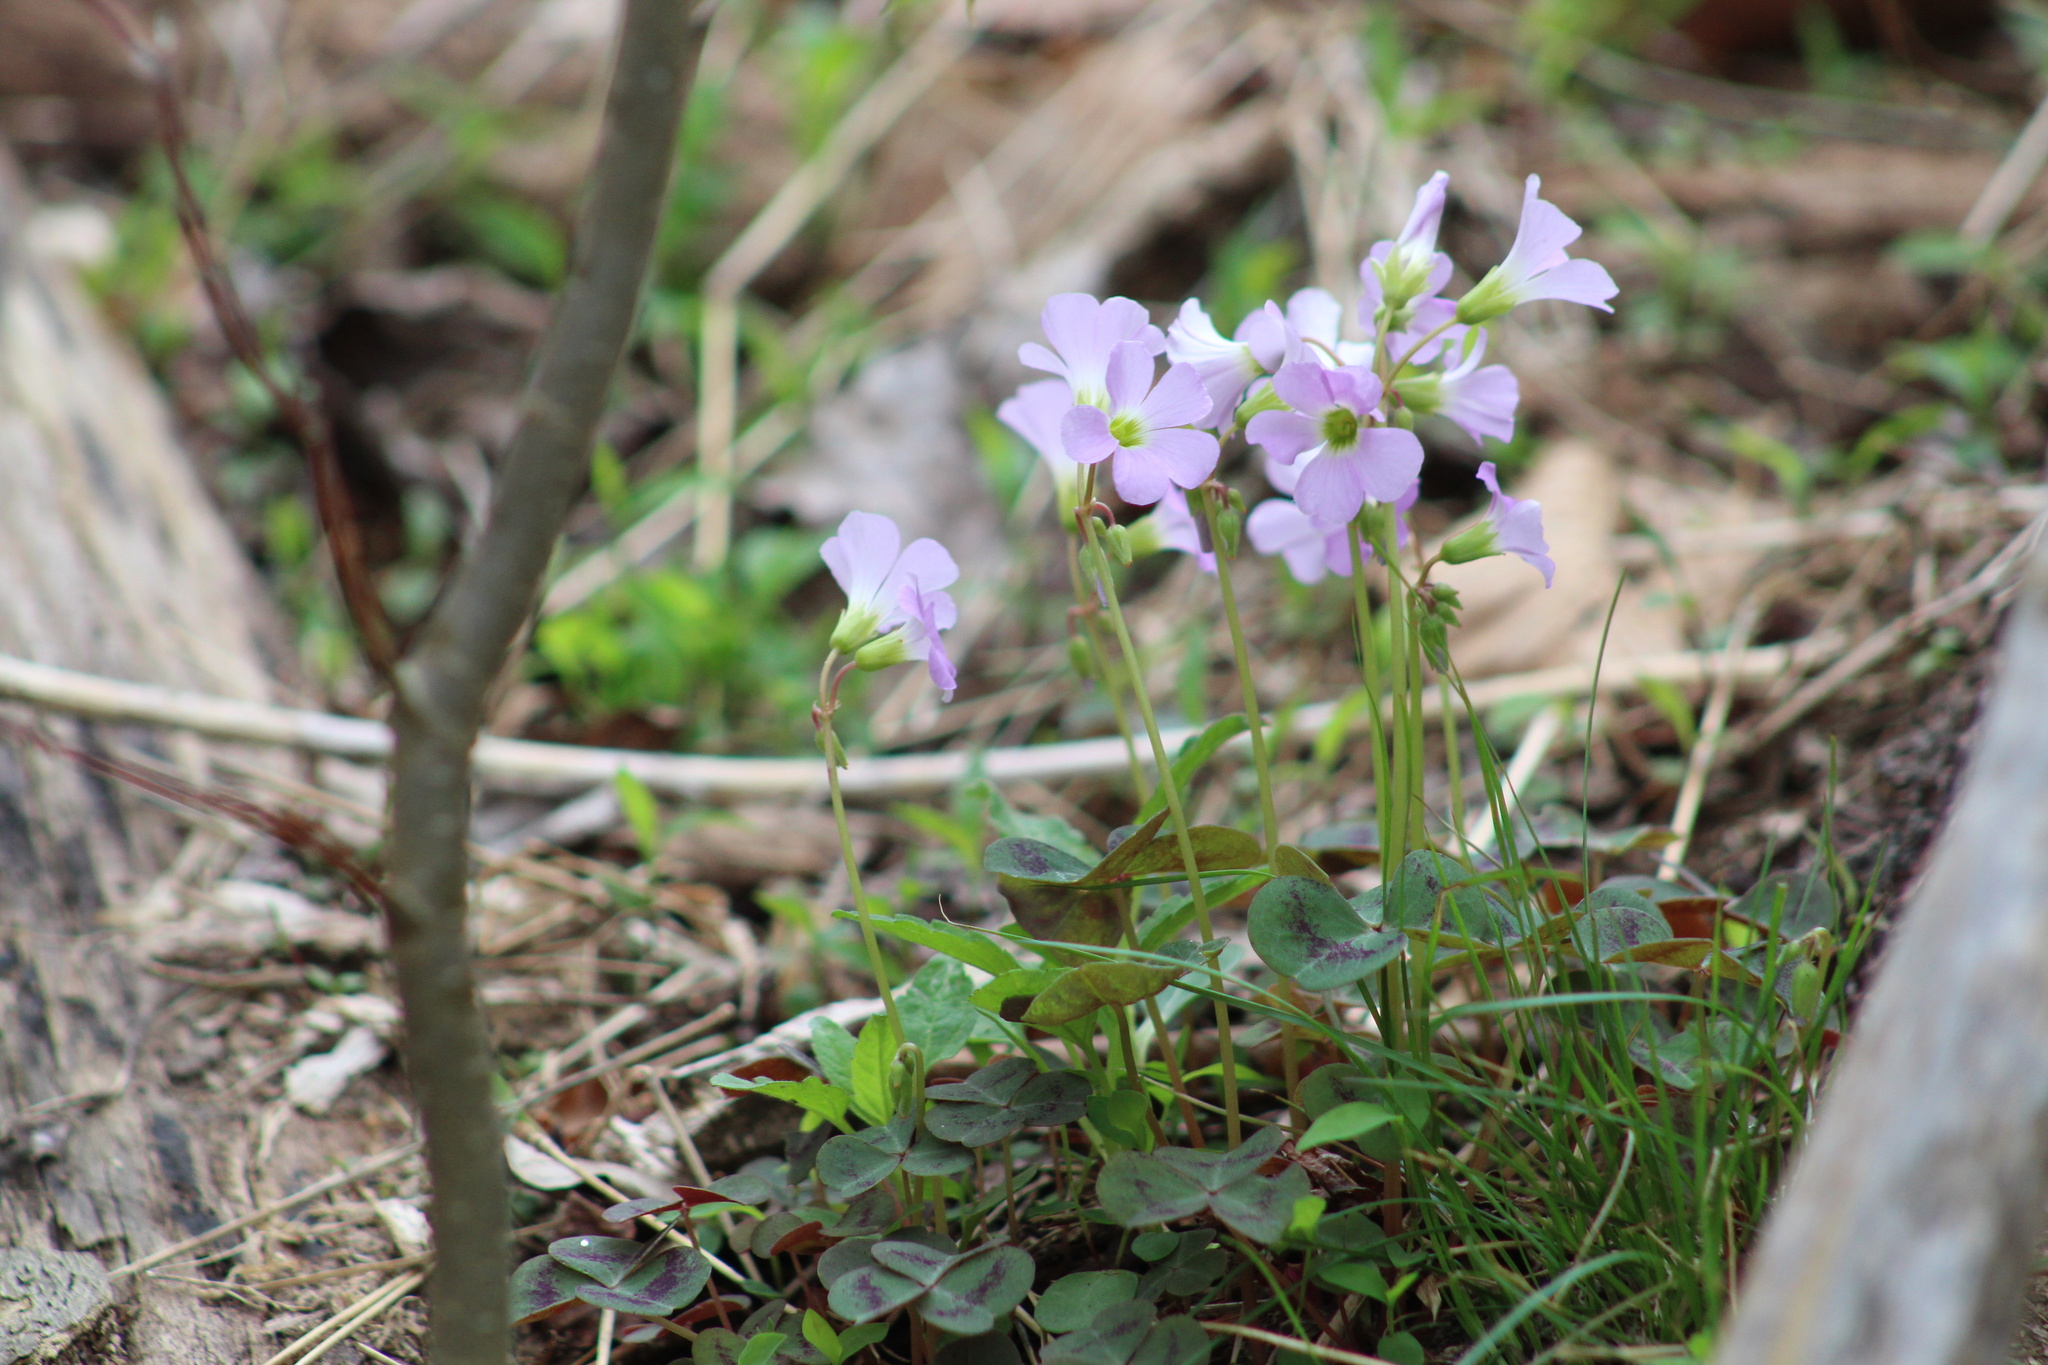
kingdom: Plantae
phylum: Tracheophyta
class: Magnoliopsida
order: Oxalidales
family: Oxalidaceae
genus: Oxalis
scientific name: Oxalis violacea
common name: Violet wood-sorrel
